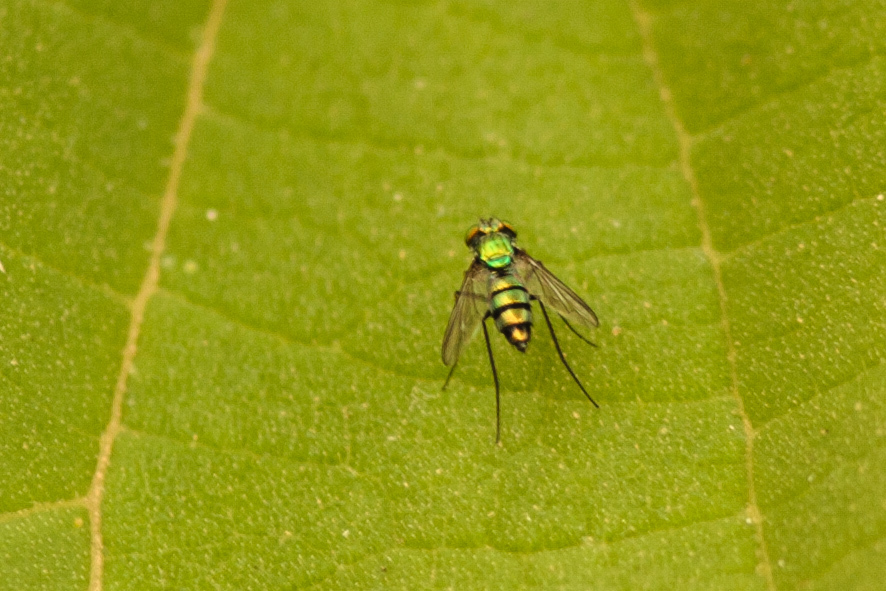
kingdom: Animalia
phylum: Arthropoda
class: Insecta
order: Diptera
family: Dolichopodidae
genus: Condylostylus
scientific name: Condylostylus longicornis
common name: Long-legged fly
